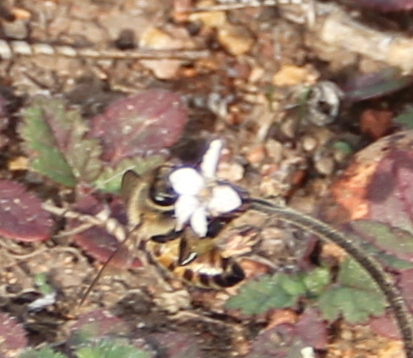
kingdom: Animalia
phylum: Arthropoda
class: Insecta
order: Hymenoptera
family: Apidae
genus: Apis
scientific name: Apis mellifera
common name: Honey bee
